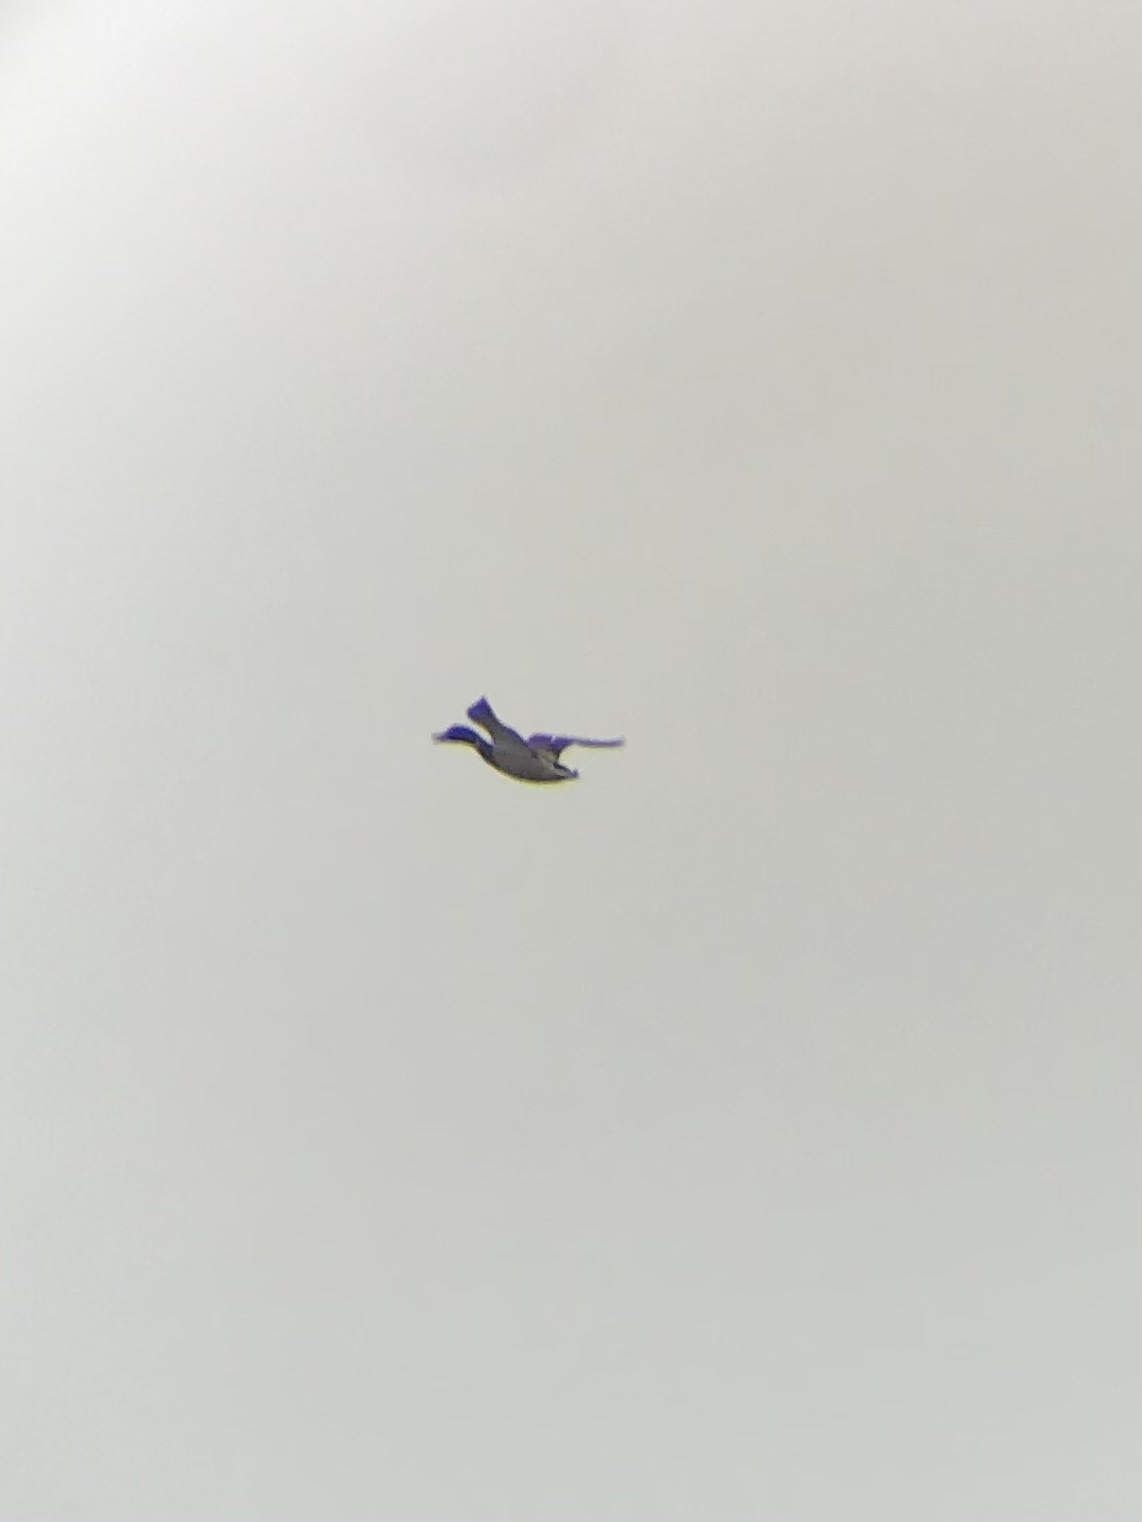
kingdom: Animalia
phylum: Chordata
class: Aves
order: Anseriformes
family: Anatidae
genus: Anas
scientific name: Anas platyrhynchos
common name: Mallard
